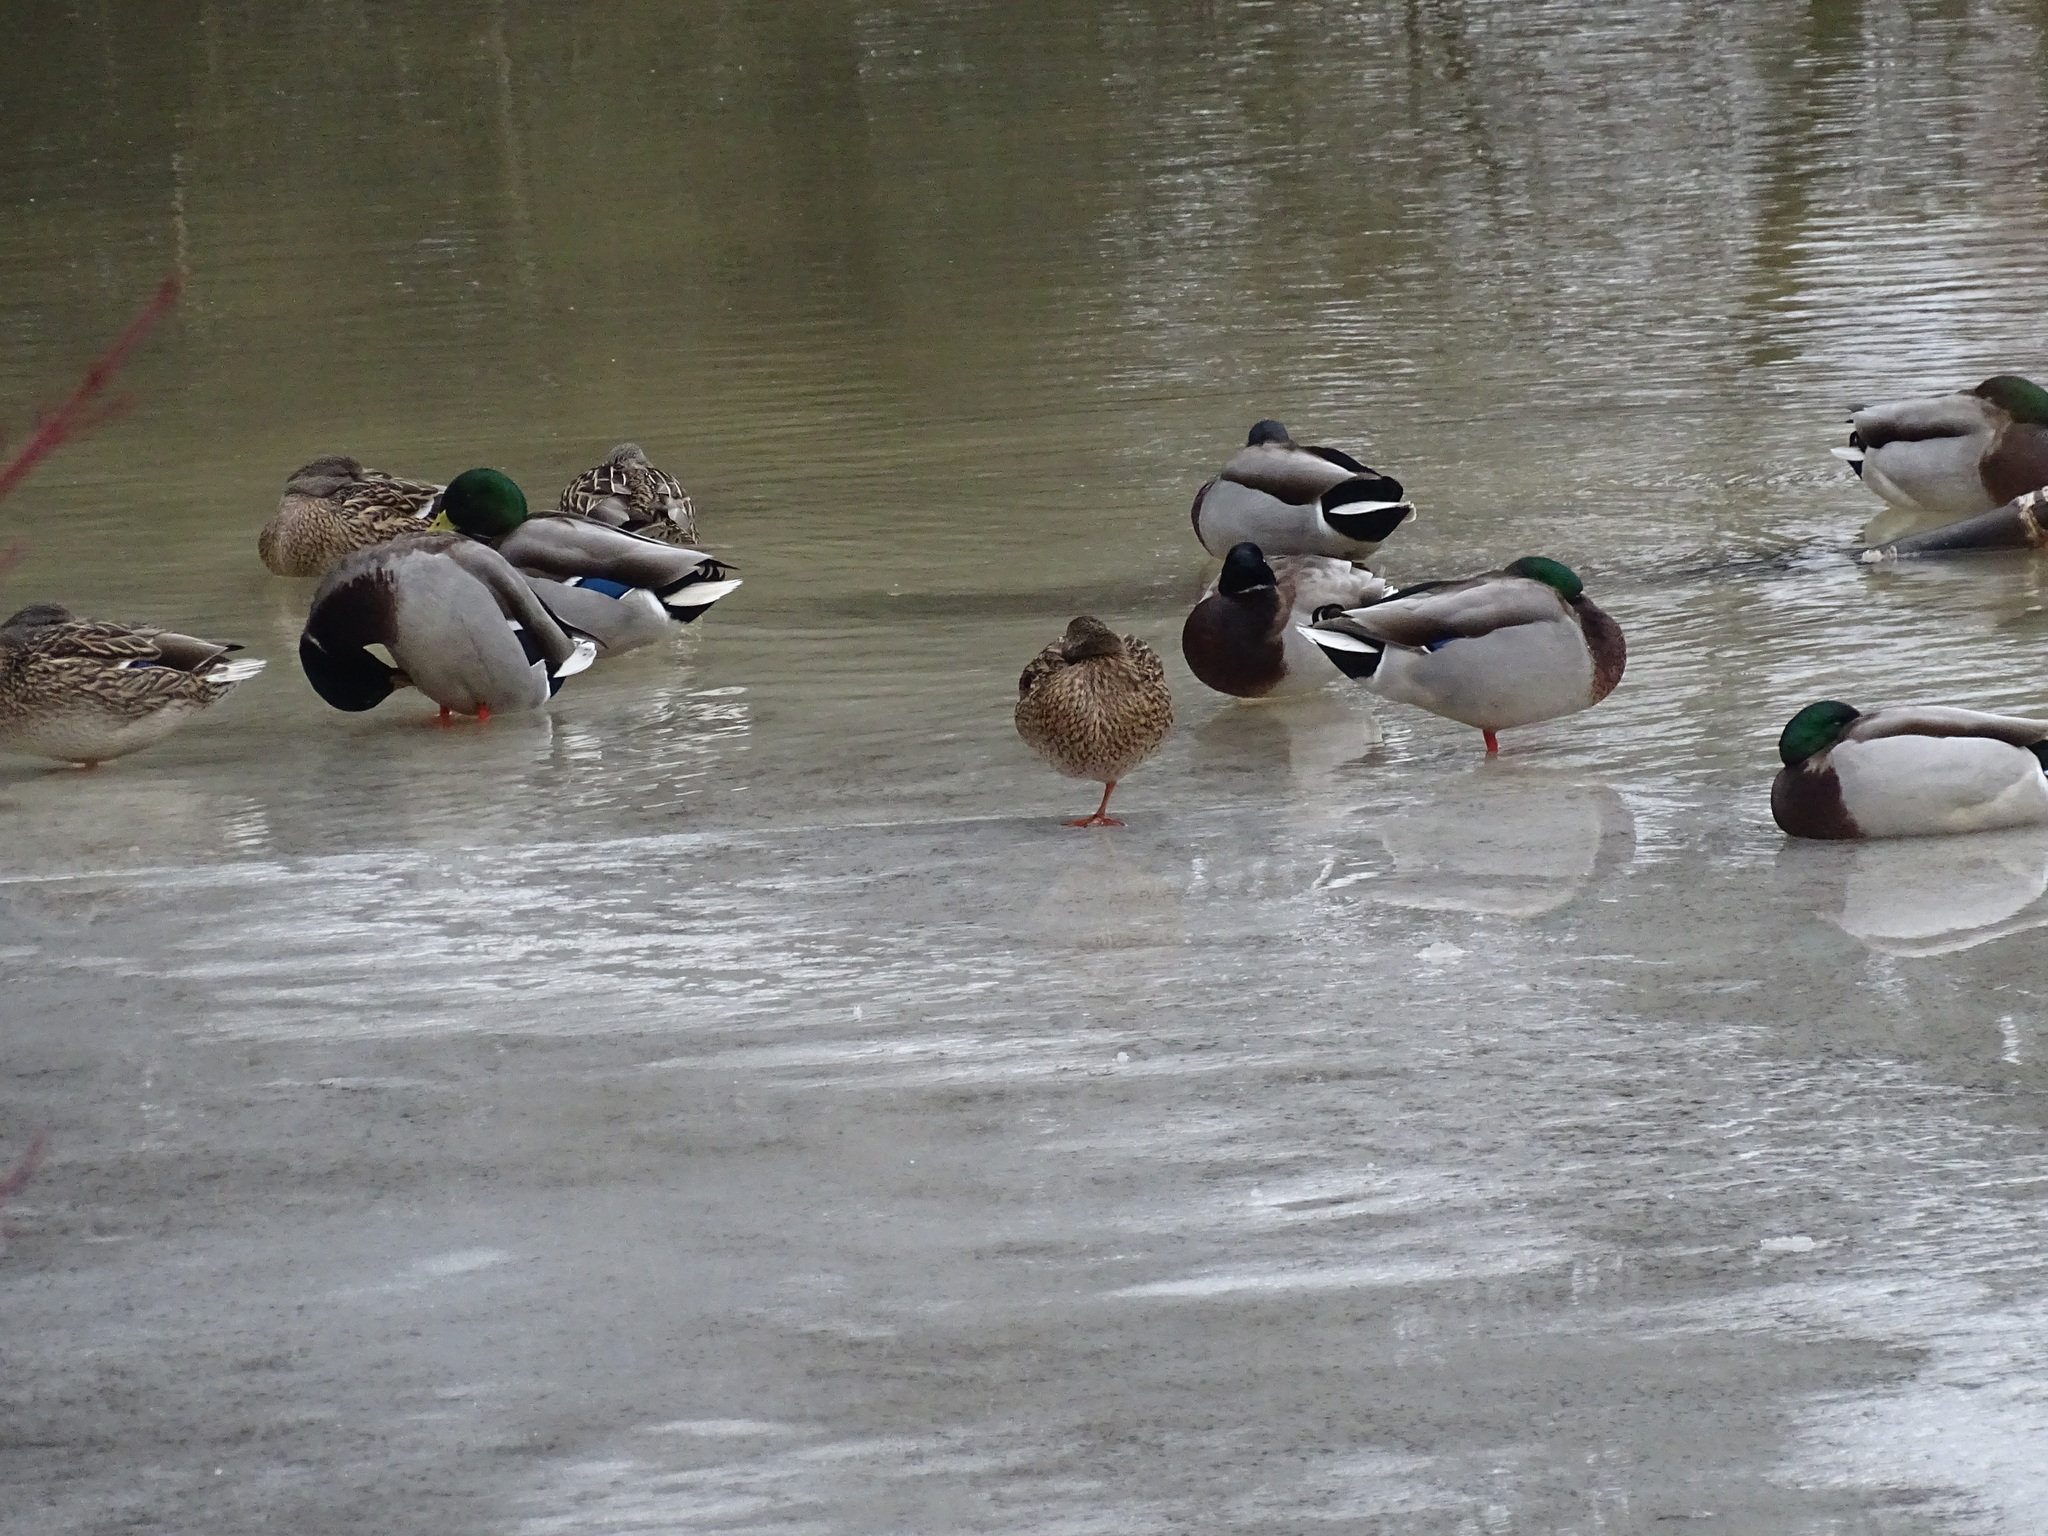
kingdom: Animalia
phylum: Chordata
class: Aves
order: Anseriformes
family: Anatidae
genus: Anas
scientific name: Anas platyrhynchos
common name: Mallard
